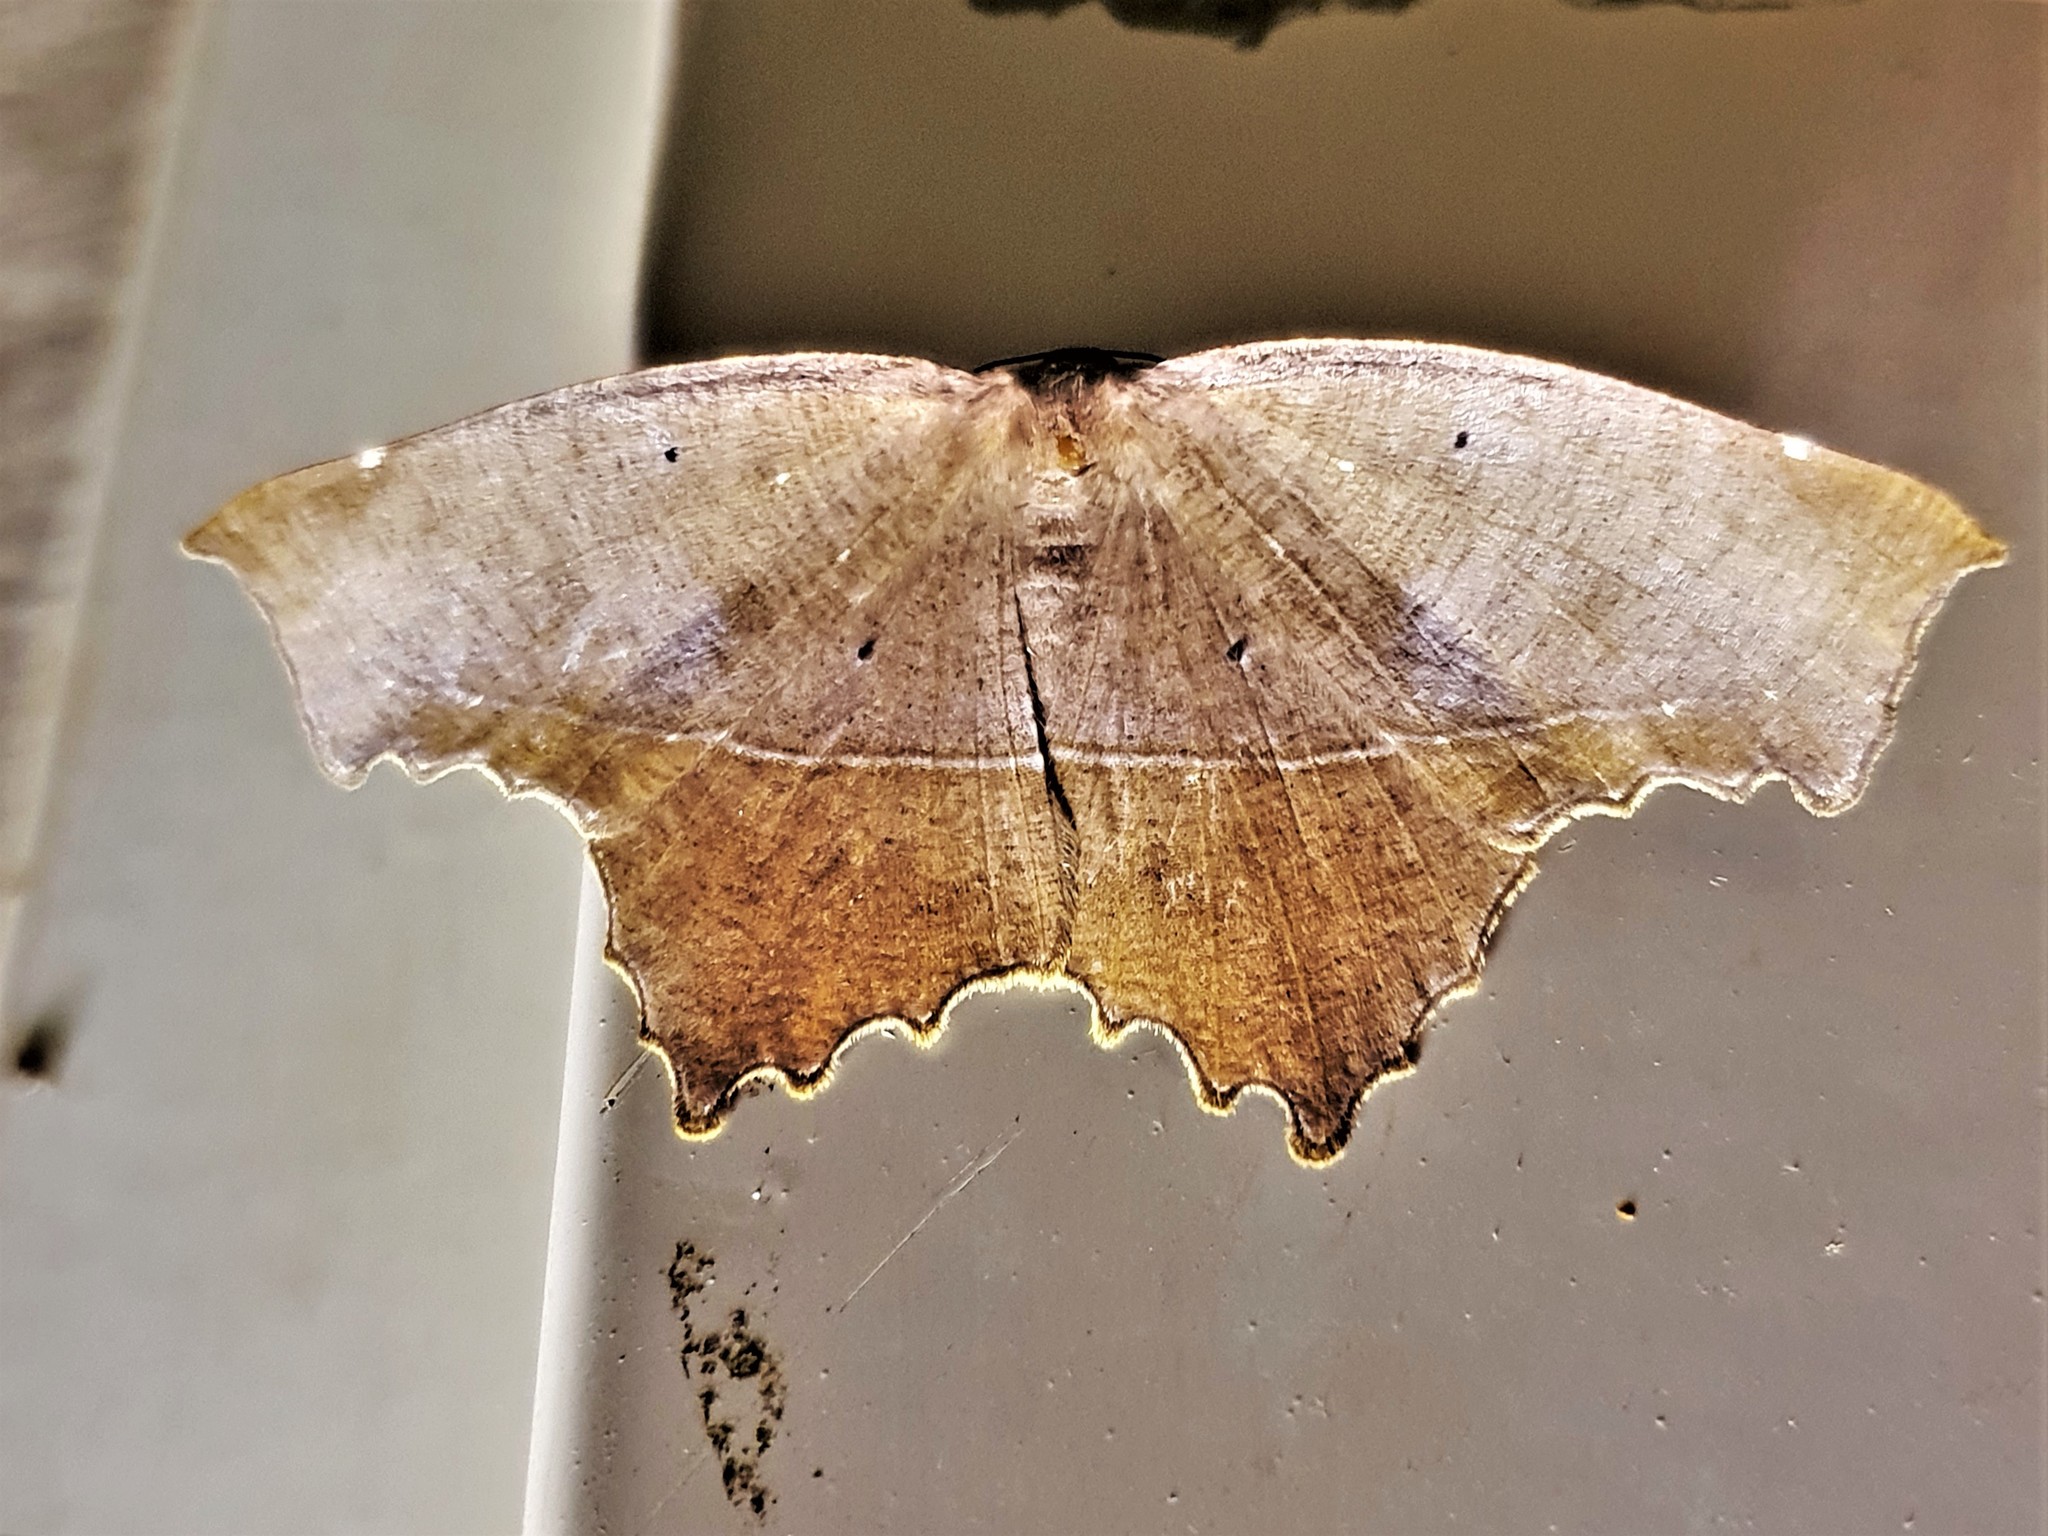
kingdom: Animalia
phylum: Arthropoda
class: Insecta
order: Lepidoptera
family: Geometridae
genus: Trotopera
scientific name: Trotopera maranharia
